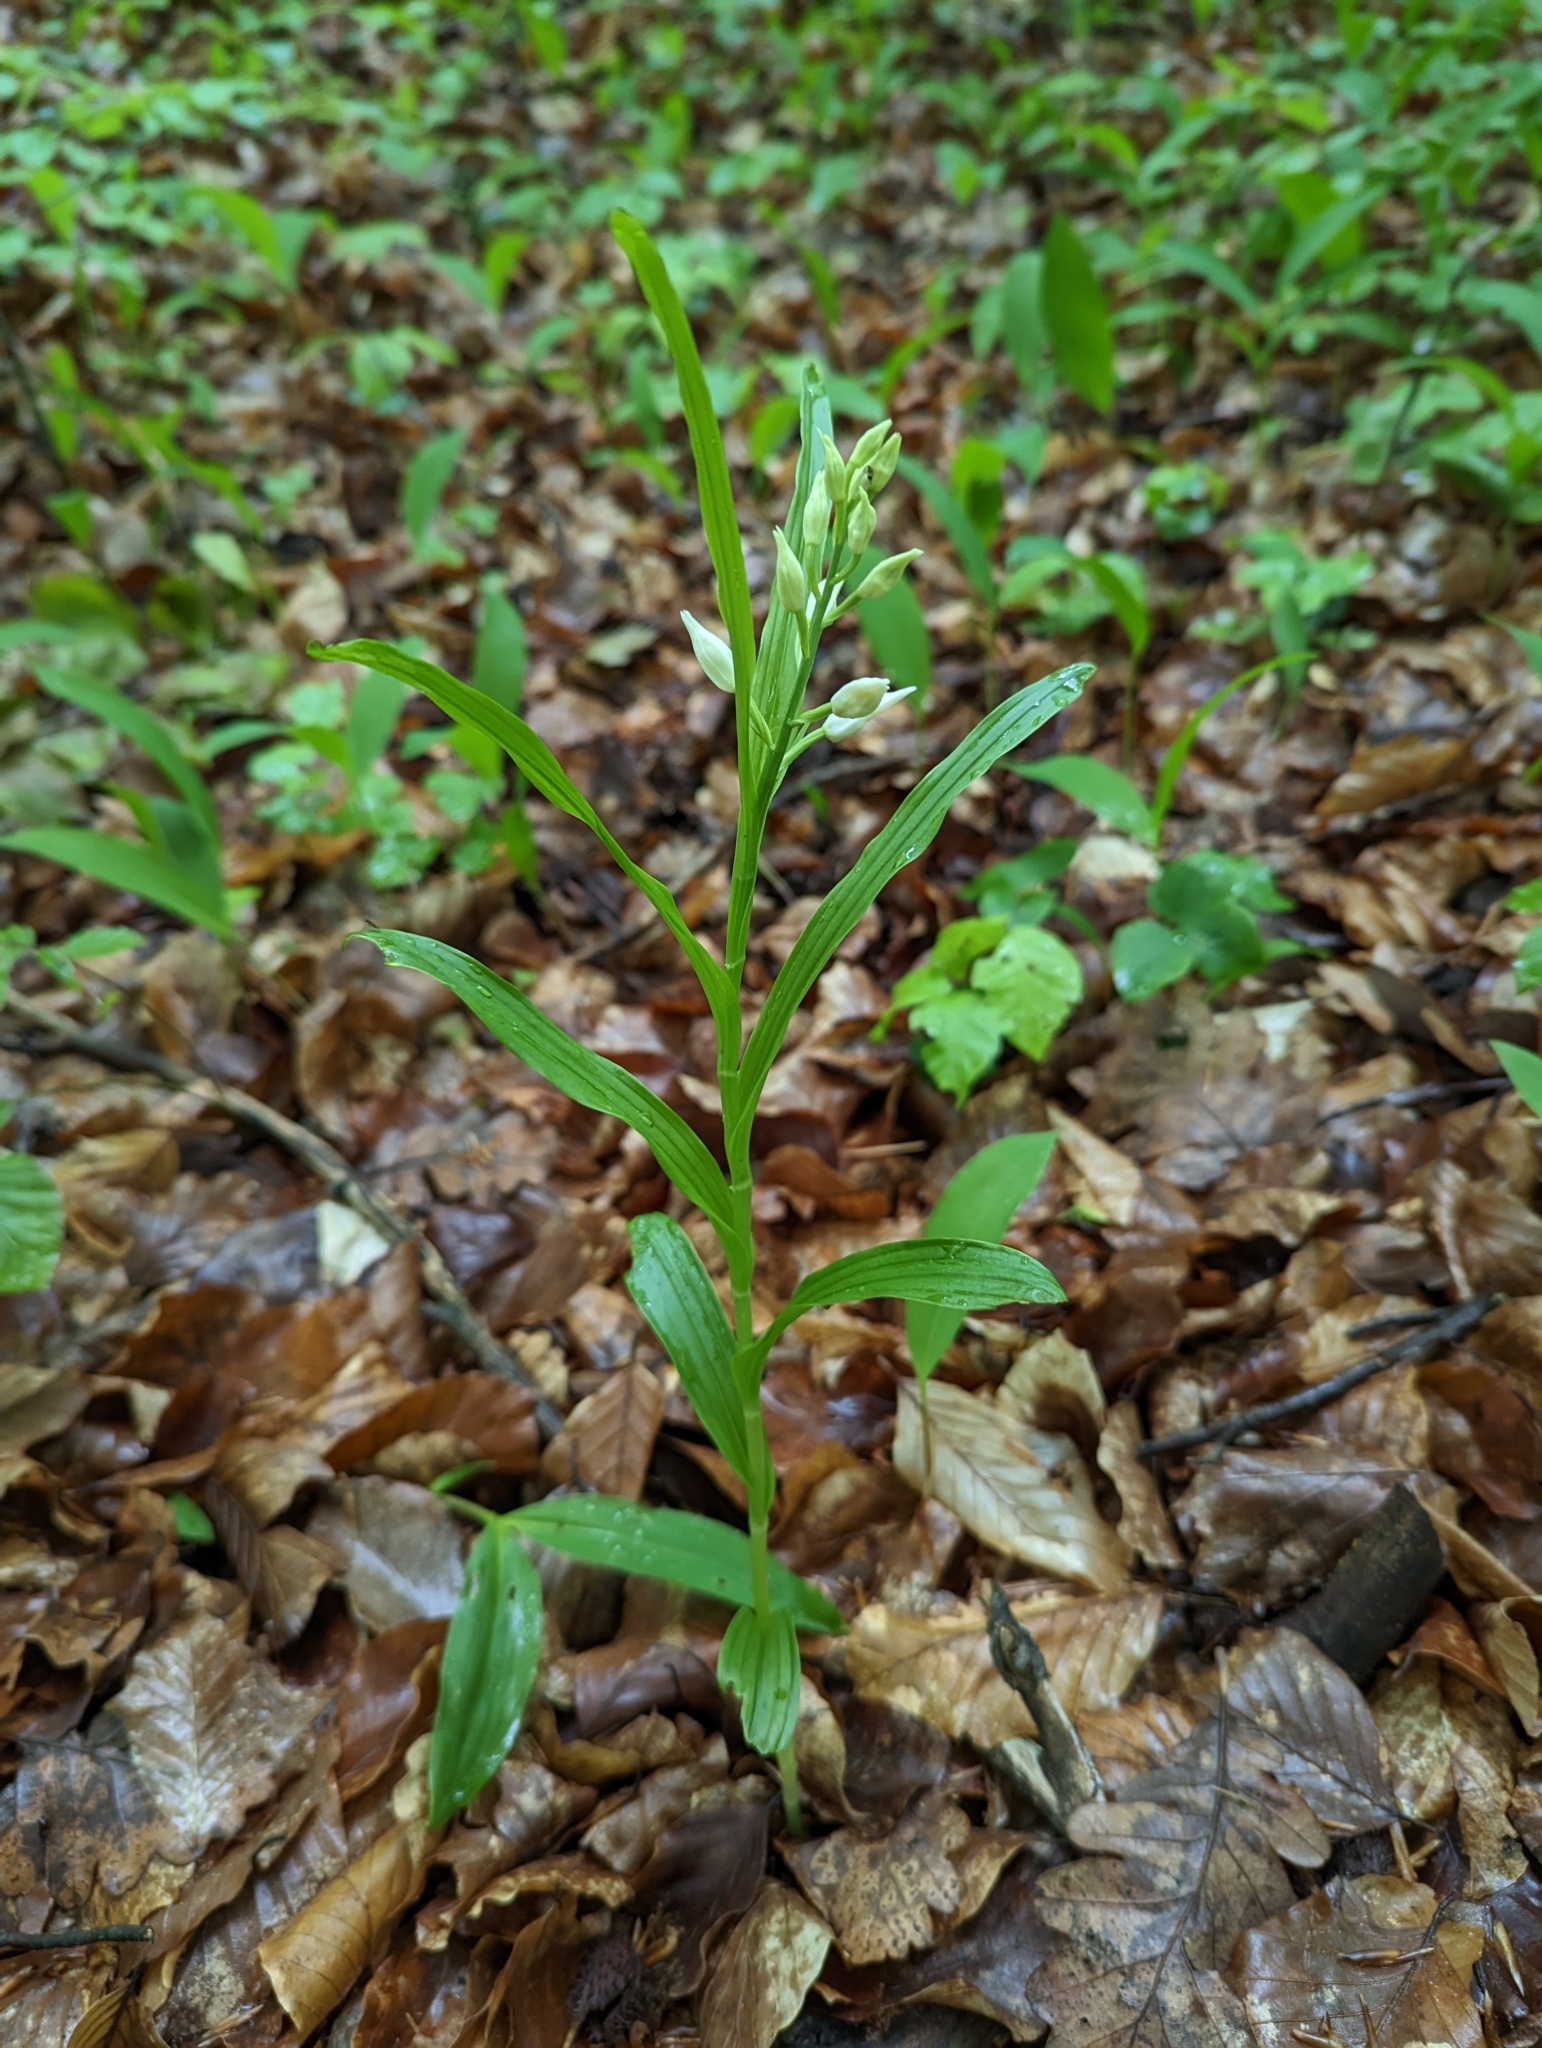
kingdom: Plantae
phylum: Tracheophyta
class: Liliopsida
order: Asparagales
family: Orchidaceae
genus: Cephalanthera
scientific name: Cephalanthera longifolia
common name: Narrow-leaved helleborine
